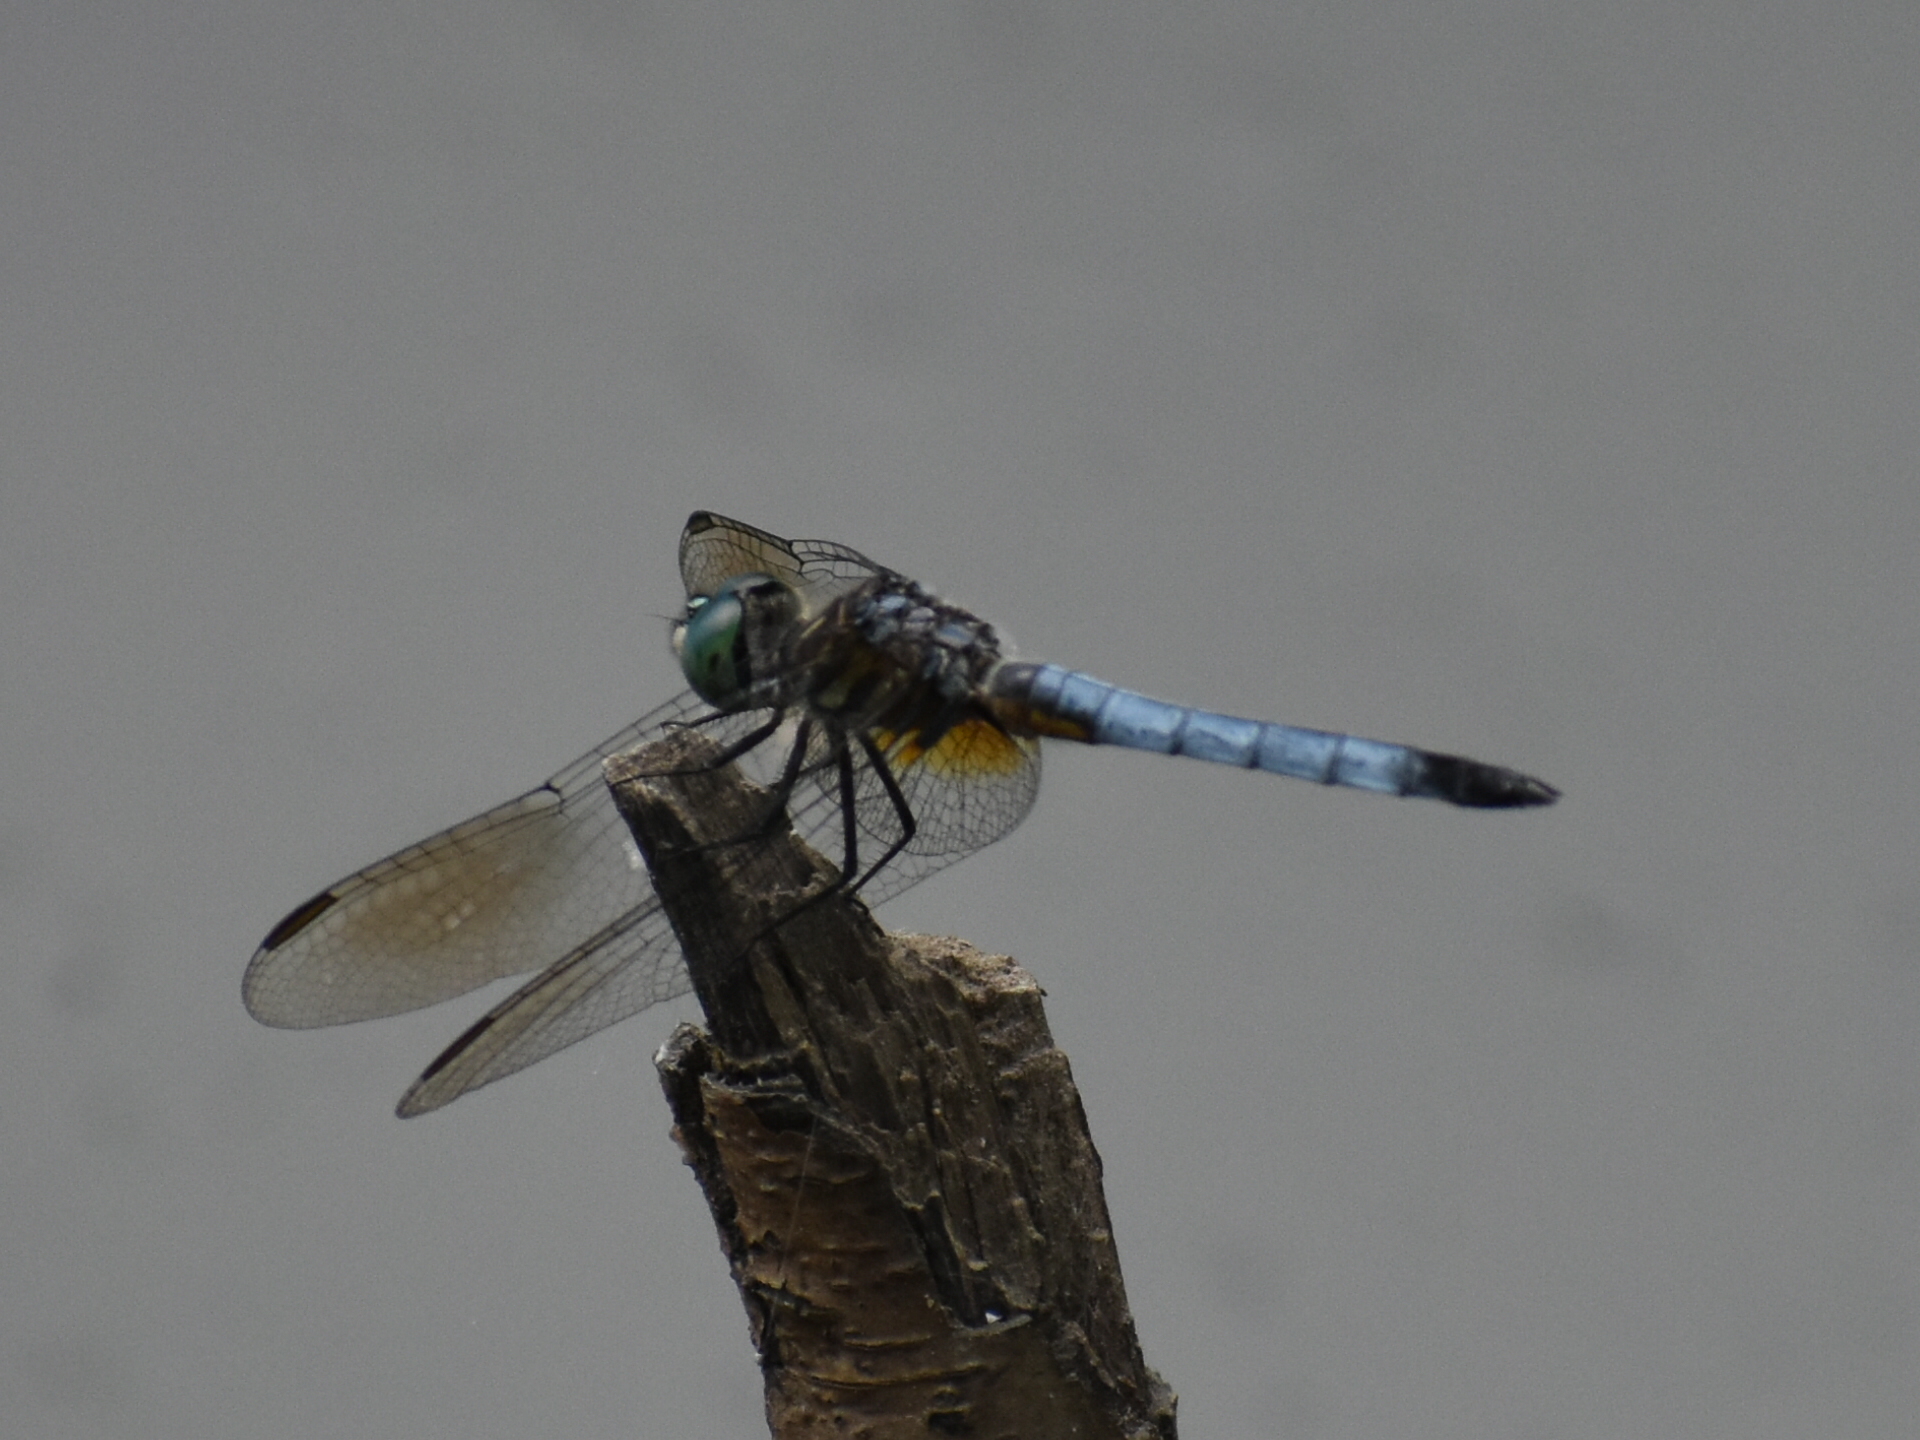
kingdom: Animalia
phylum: Arthropoda
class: Insecta
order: Odonata
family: Libellulidae
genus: Pachydiplax
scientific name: Pachydiplax longipennis
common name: Blue dasher
